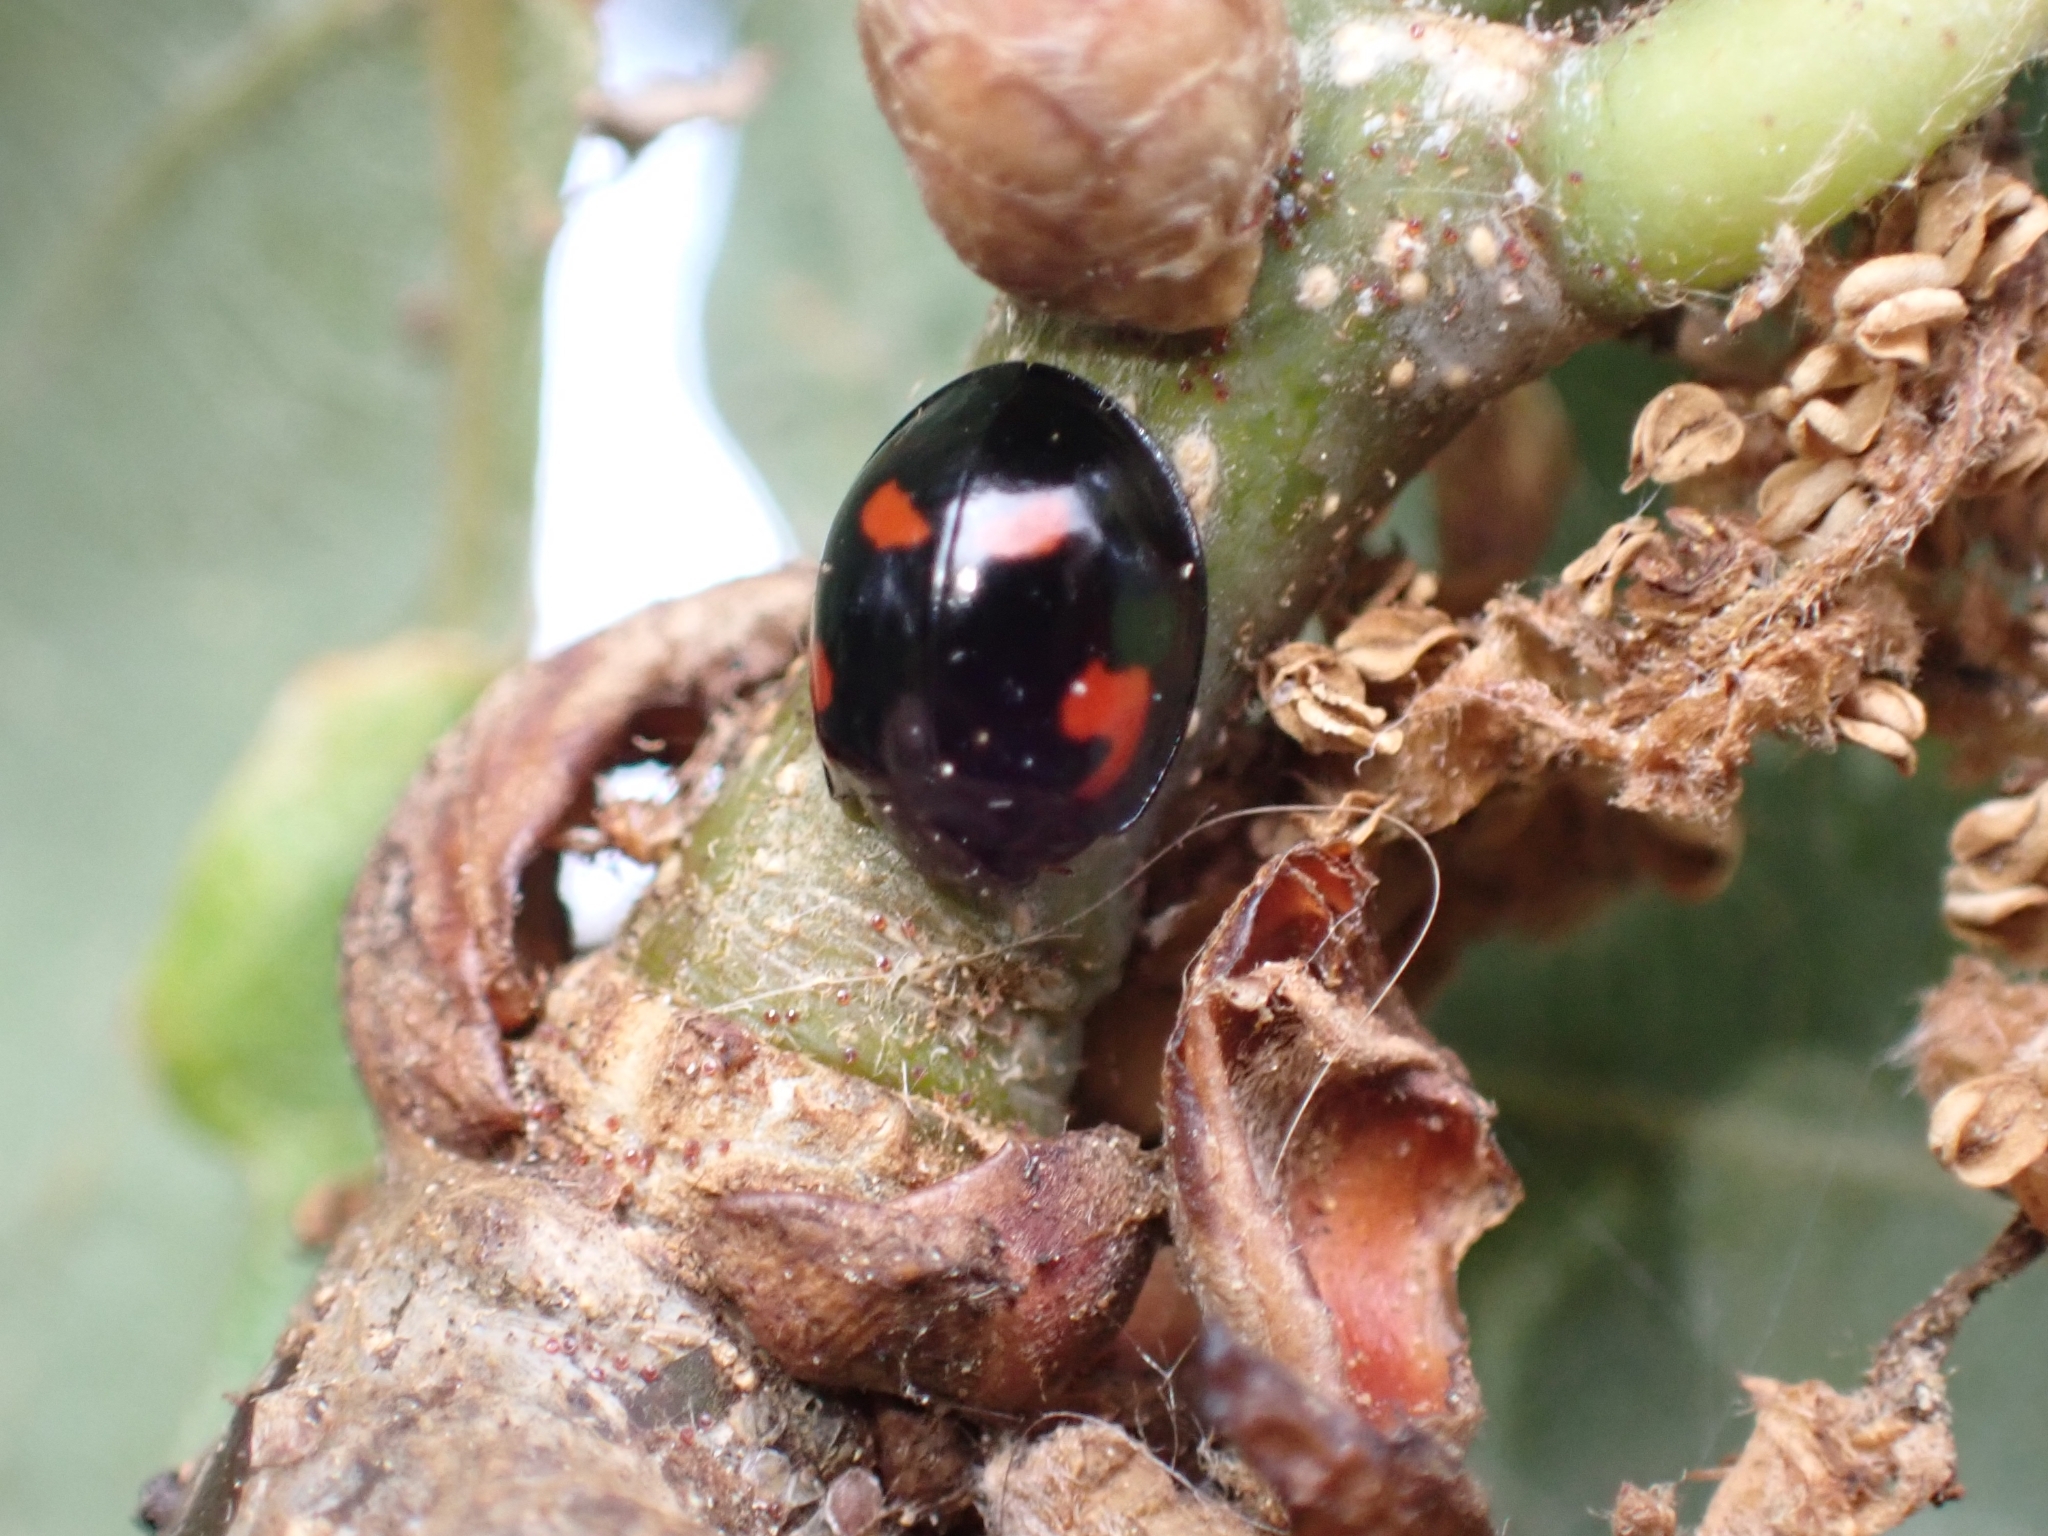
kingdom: Animalia
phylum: Arthropoda
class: Insecta
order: Coleoptera
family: Coccinellidae
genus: Brumus
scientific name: Brumus quadripustulatus
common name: Ladybird beetle
